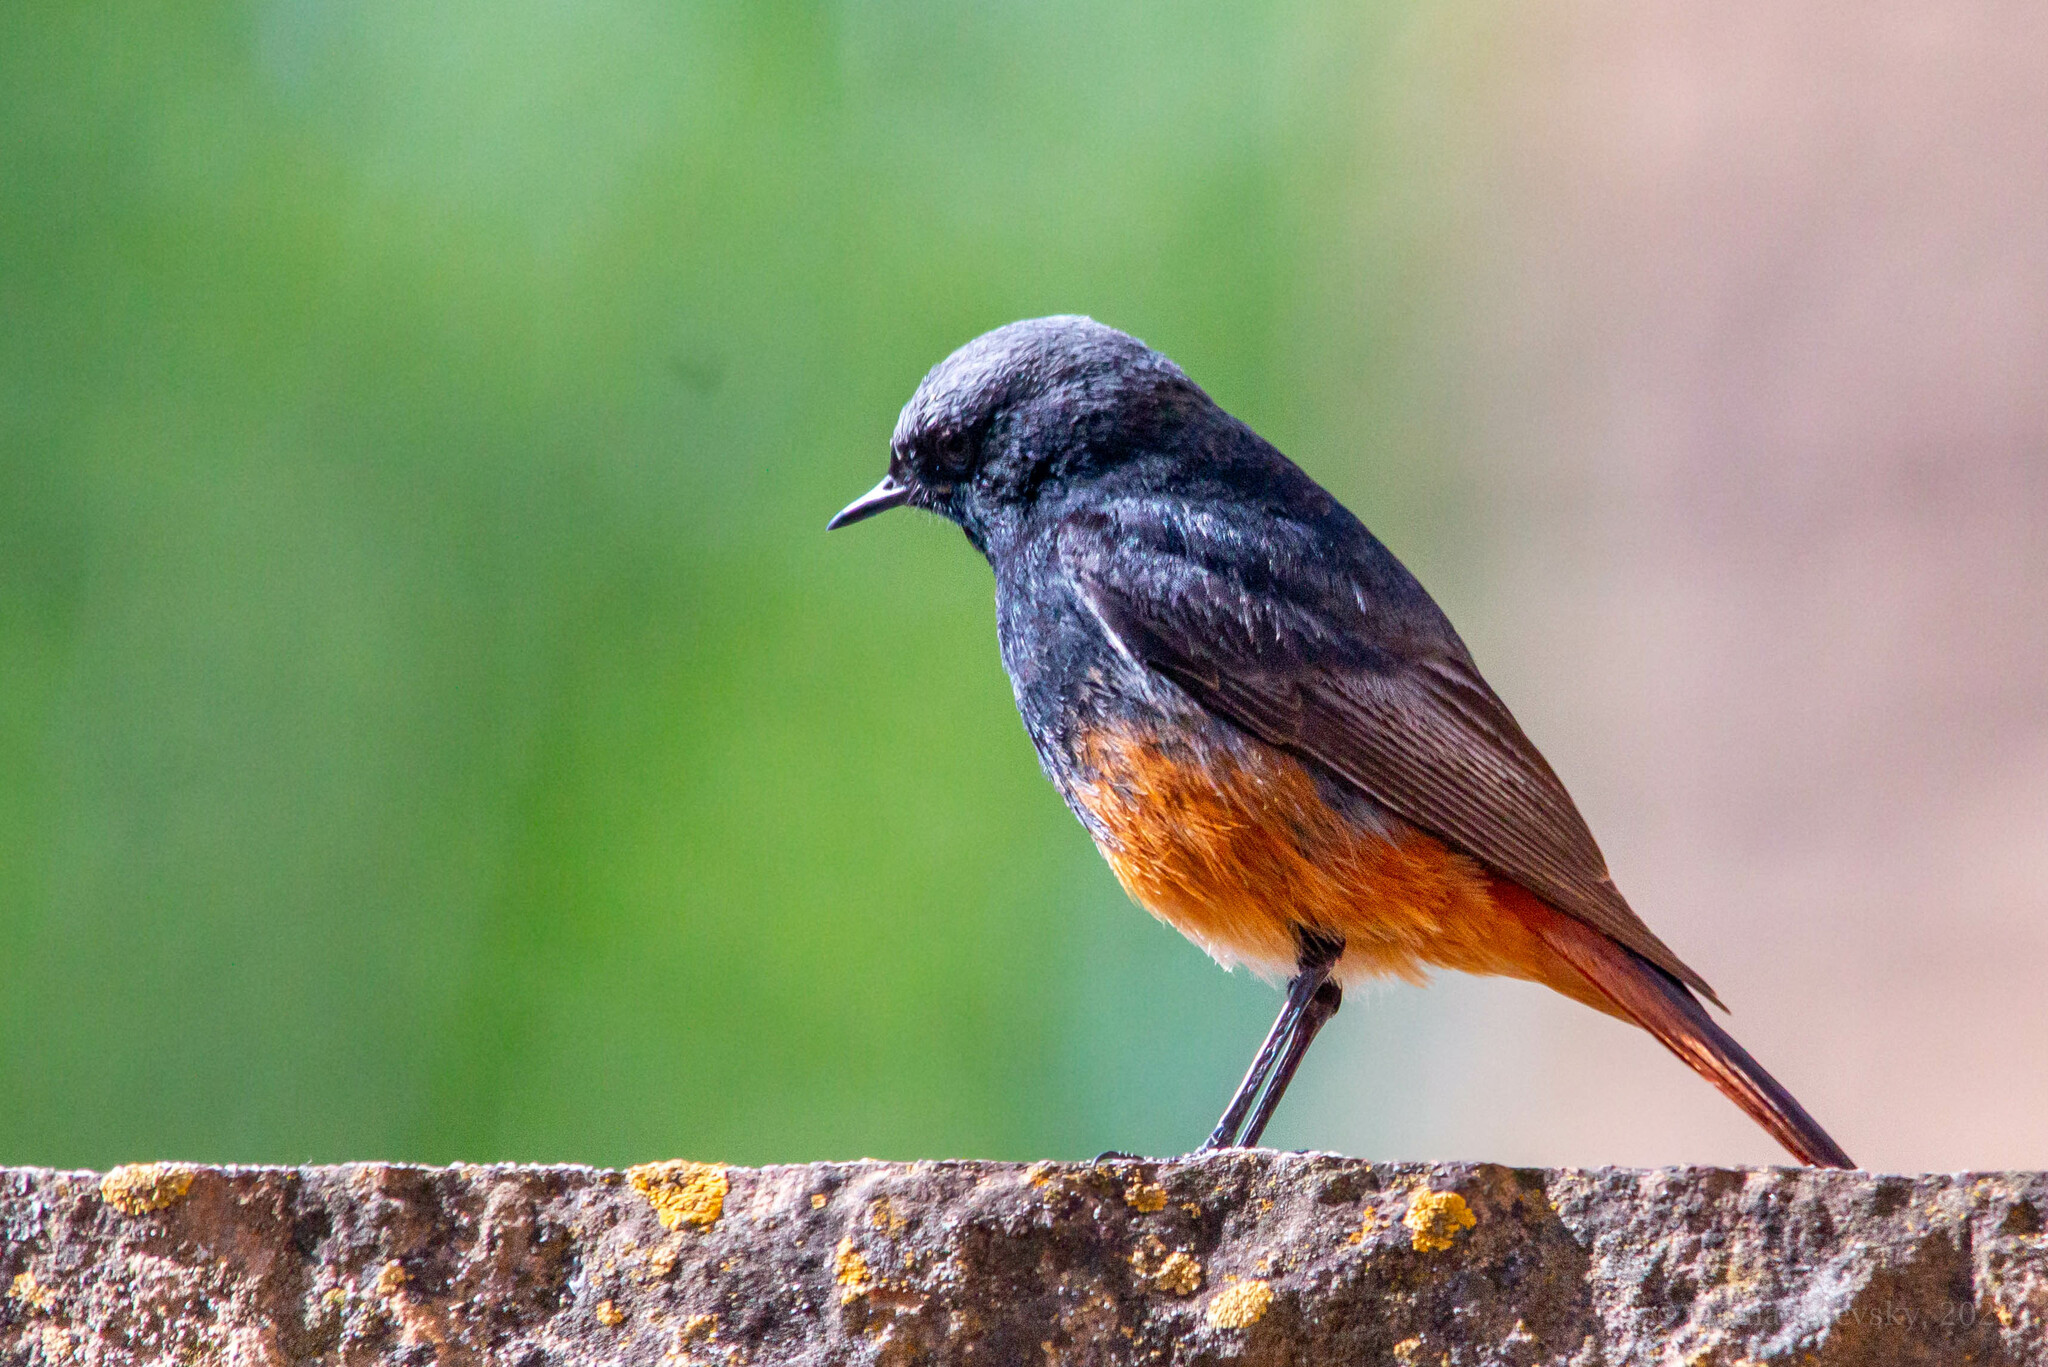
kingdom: Animalia
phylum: Chordata
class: Aves
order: Passeriformes
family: Muscicapidae
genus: Phoenicurus
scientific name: Phoenicurus ochruros
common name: Black redstart
